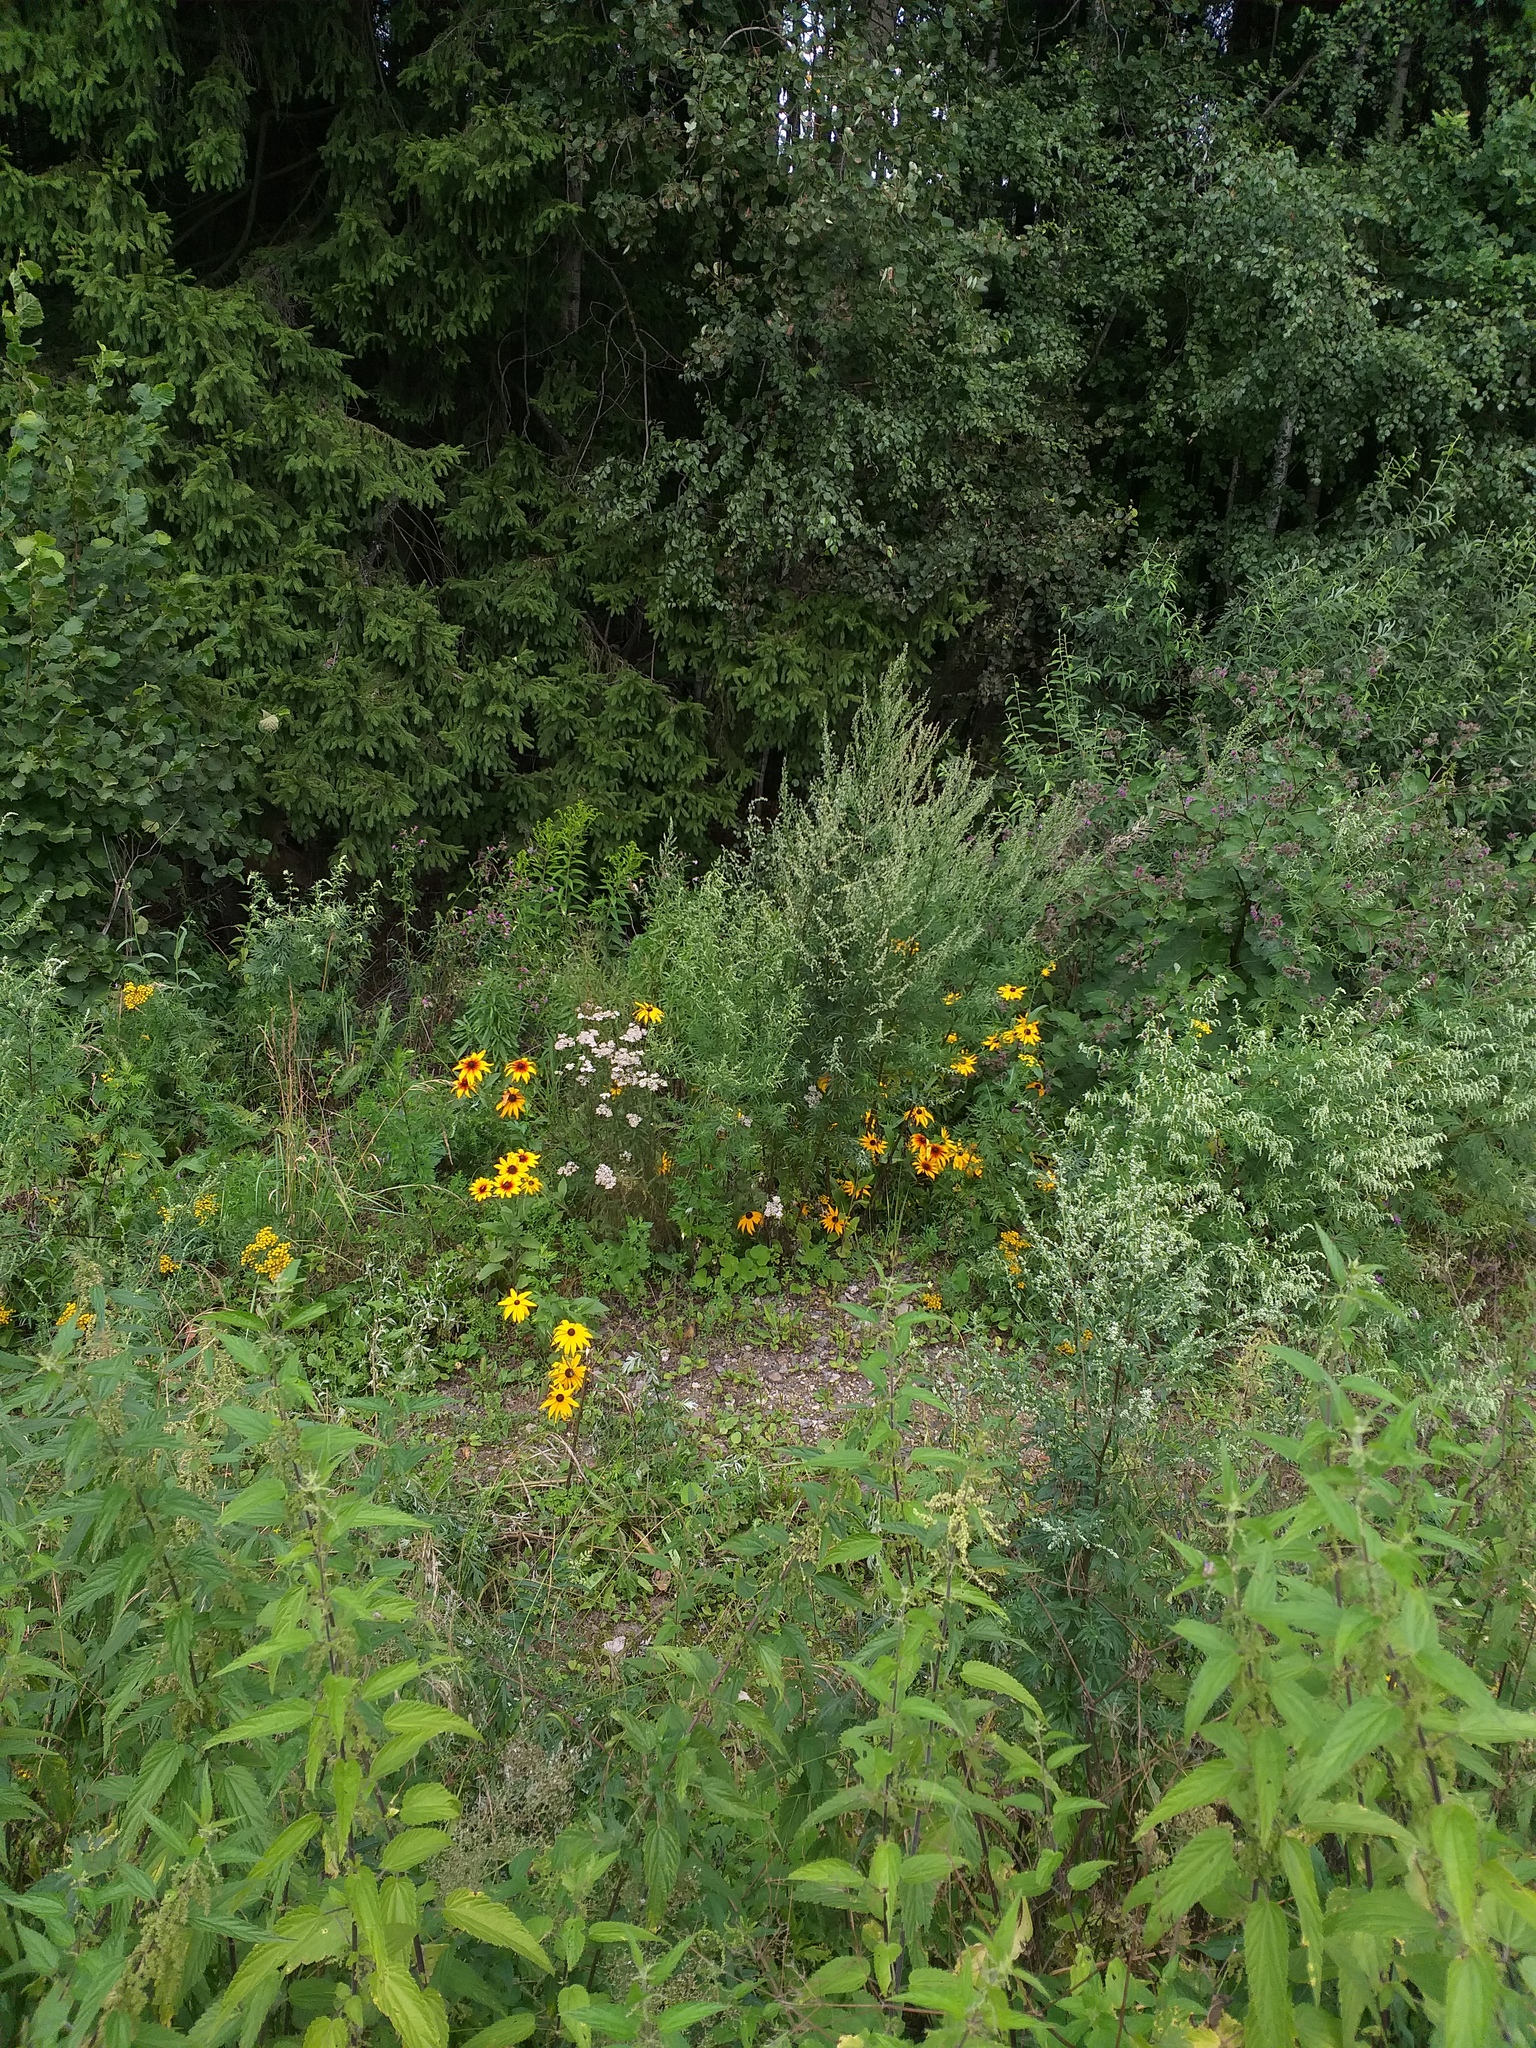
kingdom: Plantae
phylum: Tracheophyta
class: Magnoliopsida
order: Asterales
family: Asteraceae
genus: Rudbeckia
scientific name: Rudbeckia hirta
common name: Black-eyed-susan
